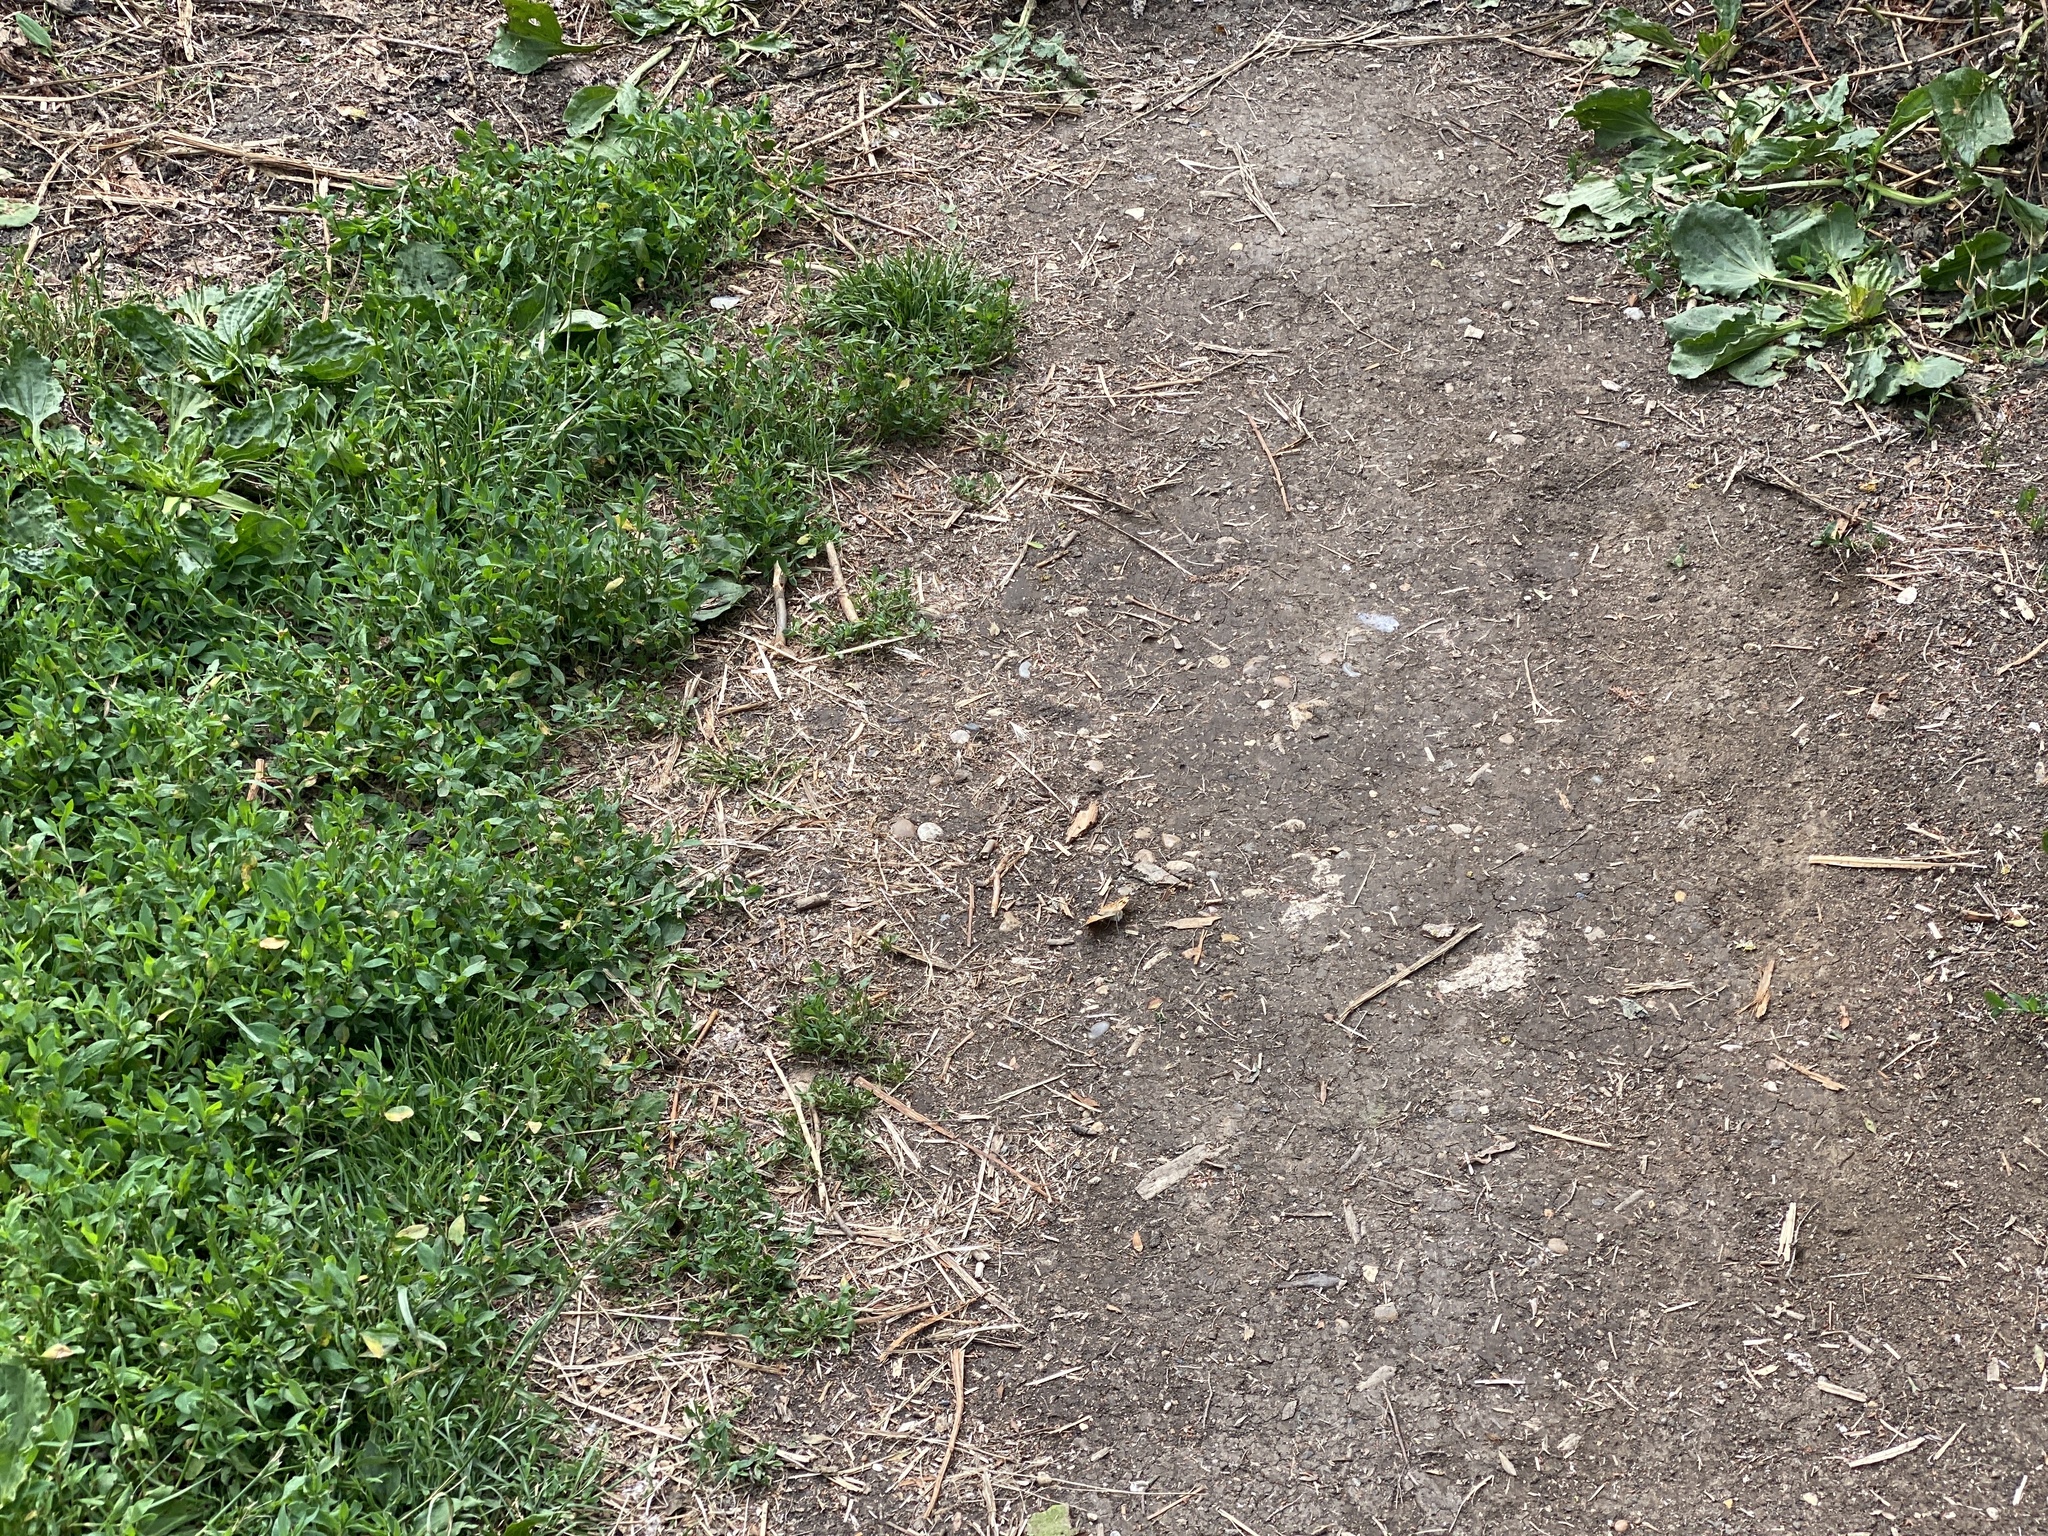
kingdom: Animalia
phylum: Arthropoda
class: Insecta
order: Lepidoptera
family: Nymphalidae
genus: Vanessa
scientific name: Vanessa cardui
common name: Painted lady
